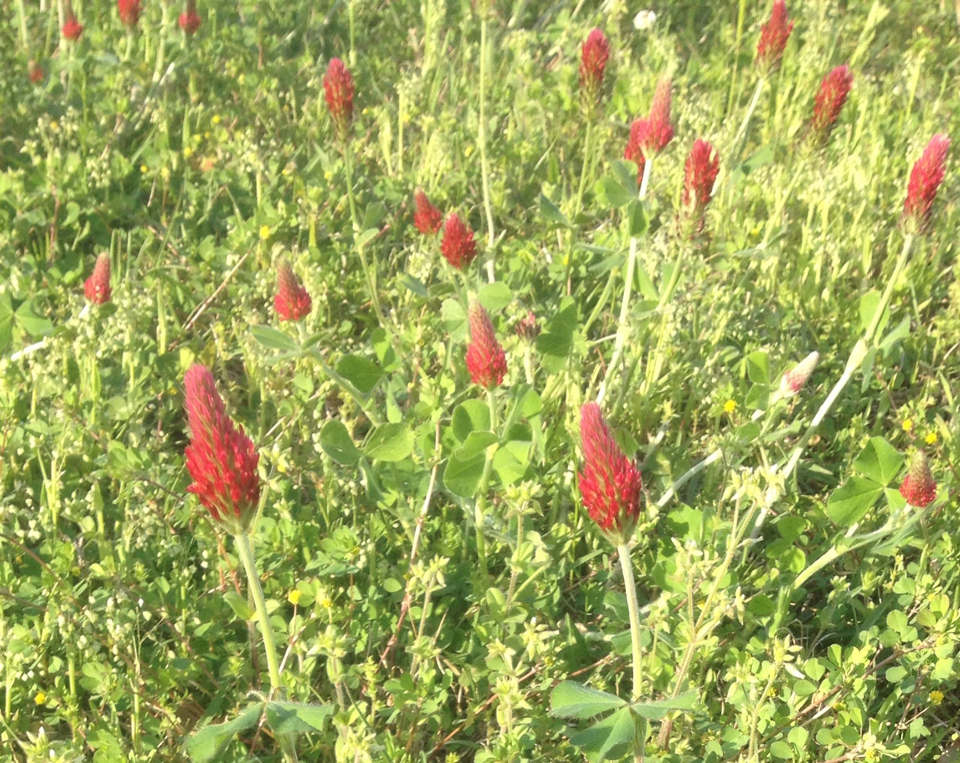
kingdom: Plantae
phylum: Tracheophyta
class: Magnoliopsida
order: Fabales
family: Fabaceae
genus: Trifolium
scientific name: Trifolium incarnatum
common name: Crimson clover
